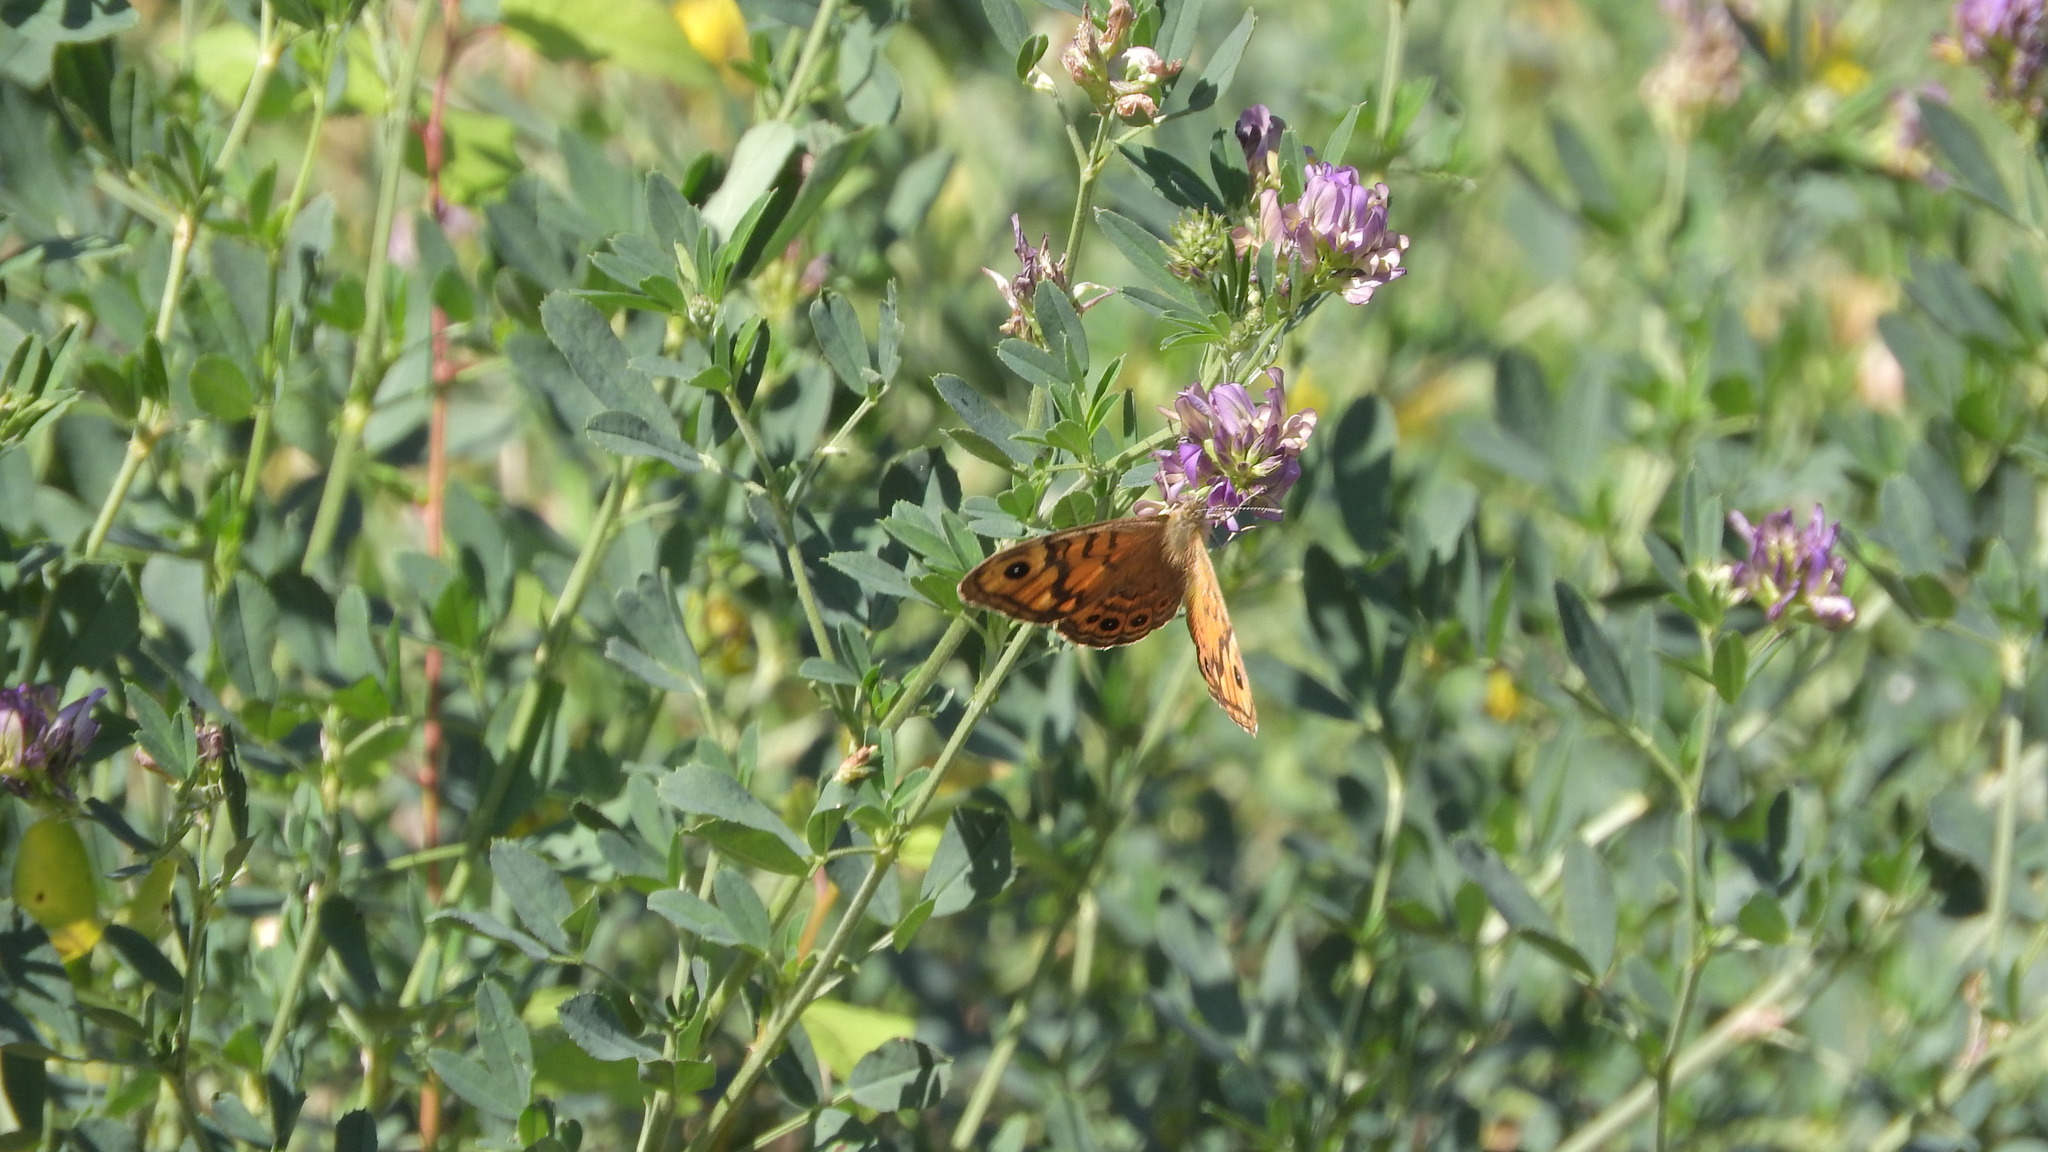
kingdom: Animalia
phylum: Arthropoda
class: Insecta
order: Lepidoptera
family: Nymphalidae
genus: Pararge
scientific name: Pararge Lasiommata megera
